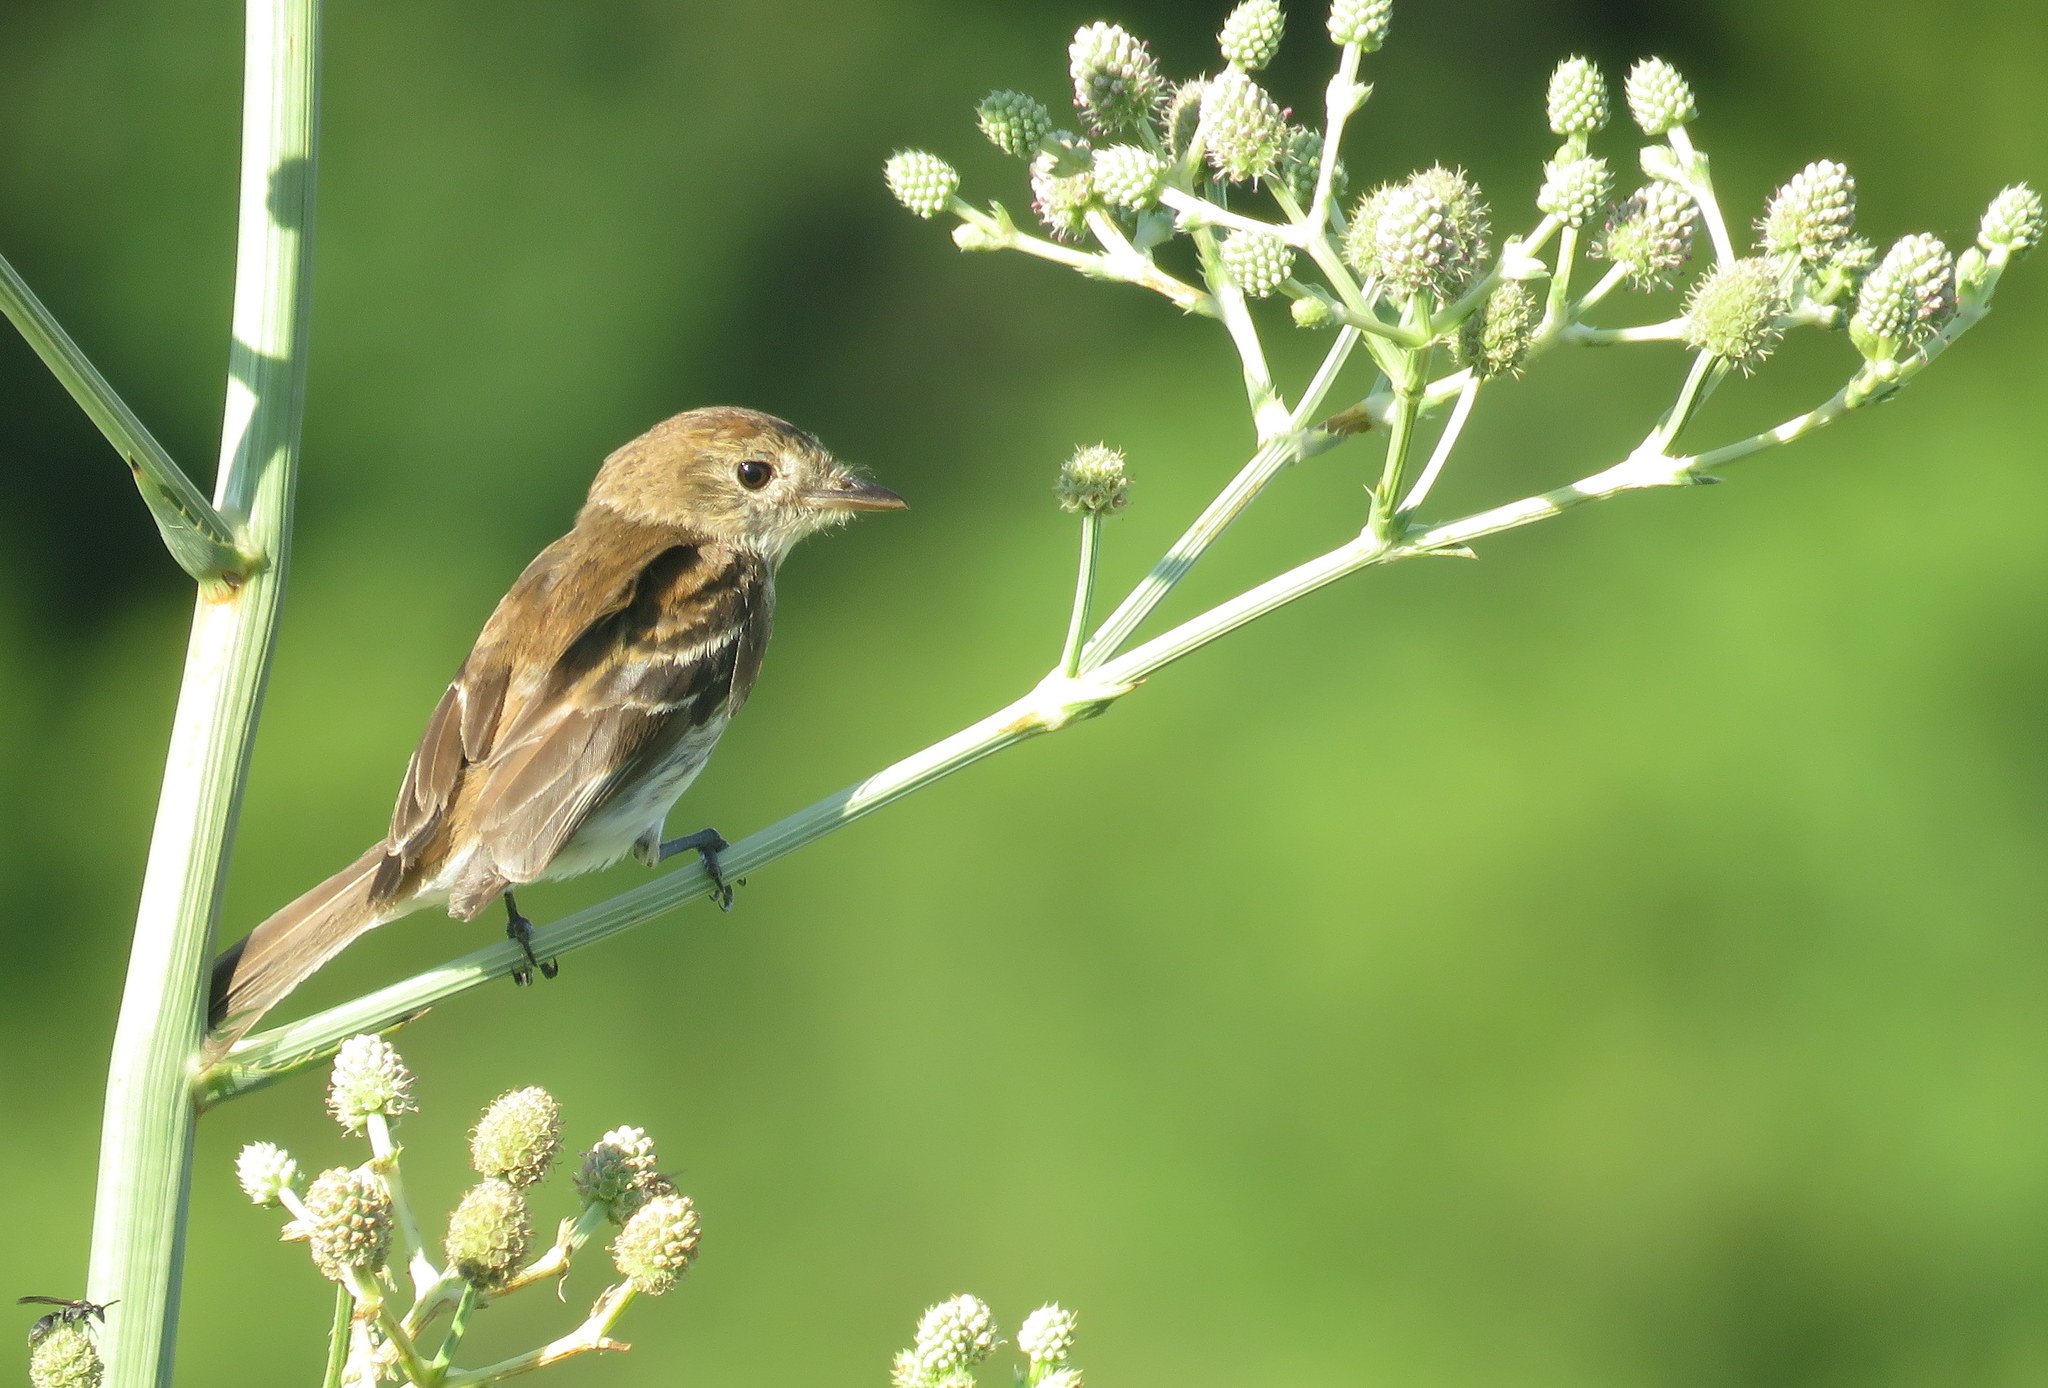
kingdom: Animalia
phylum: Chordata
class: Aves
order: Passeriformes
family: Tyrannidae
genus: Myiophobus
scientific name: Myiophobus fasciatus
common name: Bran-colored flycatcher
